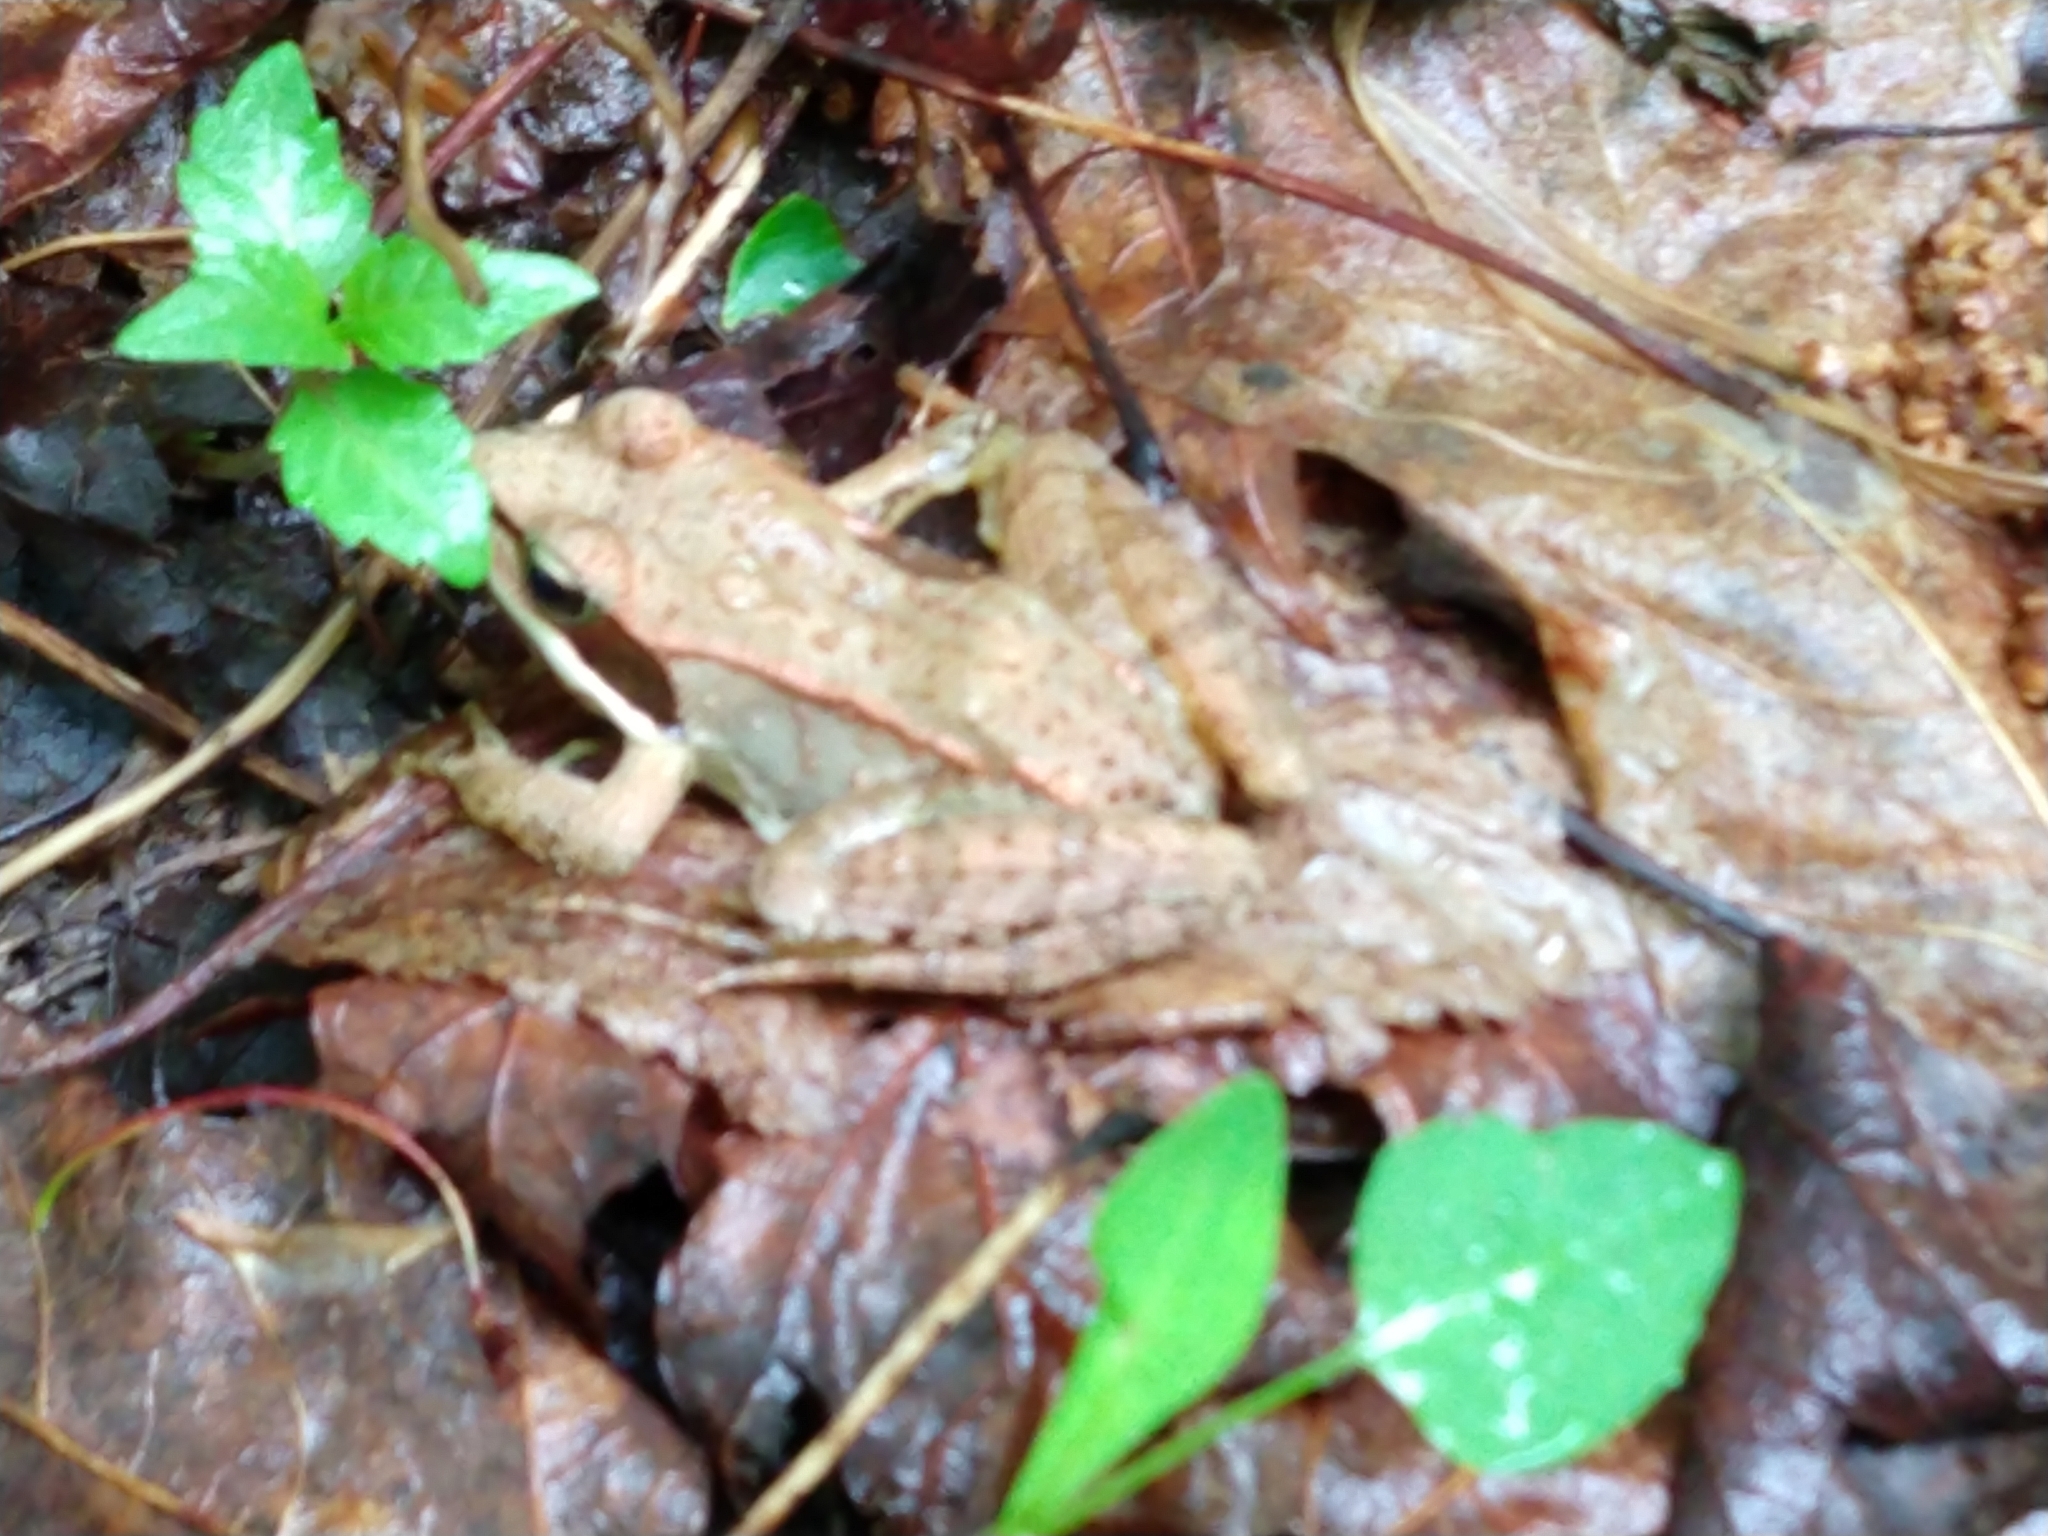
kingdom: Animalia
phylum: Chordata
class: Amphibia
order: Anura
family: Ranidae
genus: Lithobates
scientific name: Lithobates sylvaticus
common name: Wood frog
